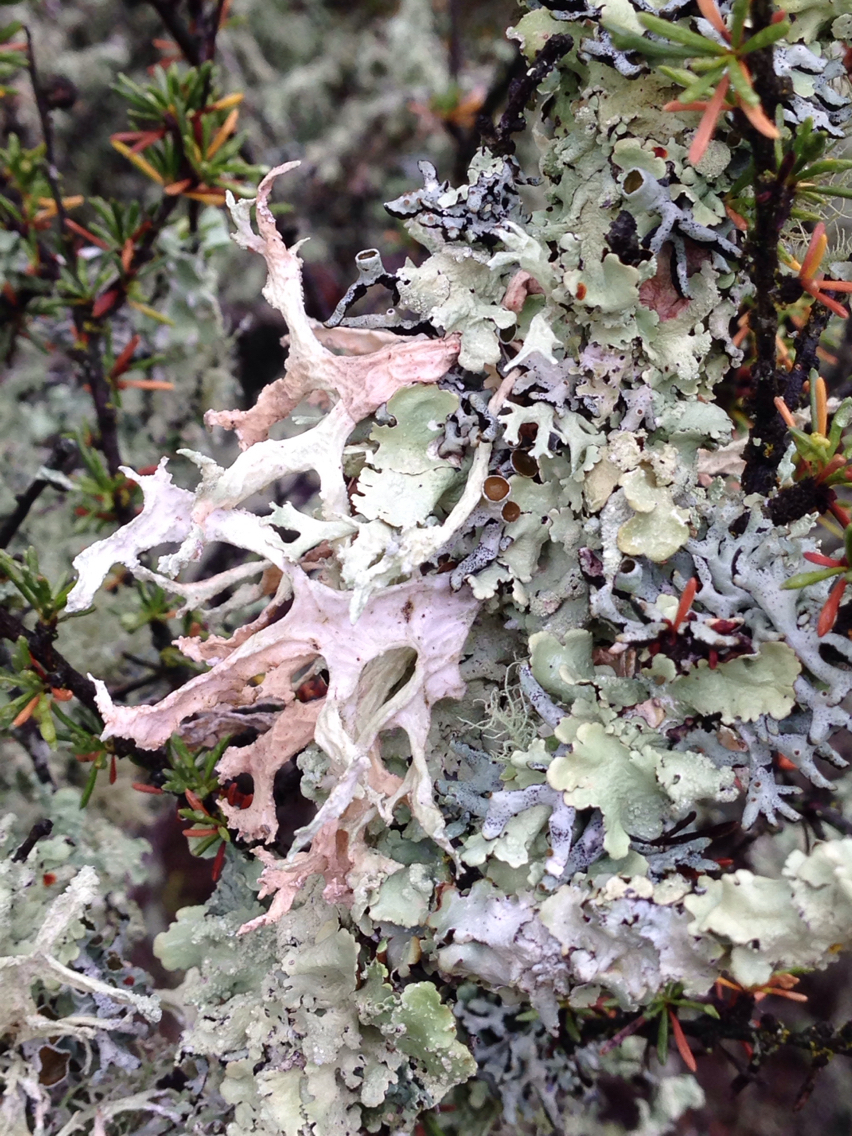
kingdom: Fungi
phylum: Ascomycota
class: Lecanoromycetes
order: Lecanorales
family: Parmeliaceae
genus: Evernia
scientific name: Evernia prunastri
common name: Oak moss
